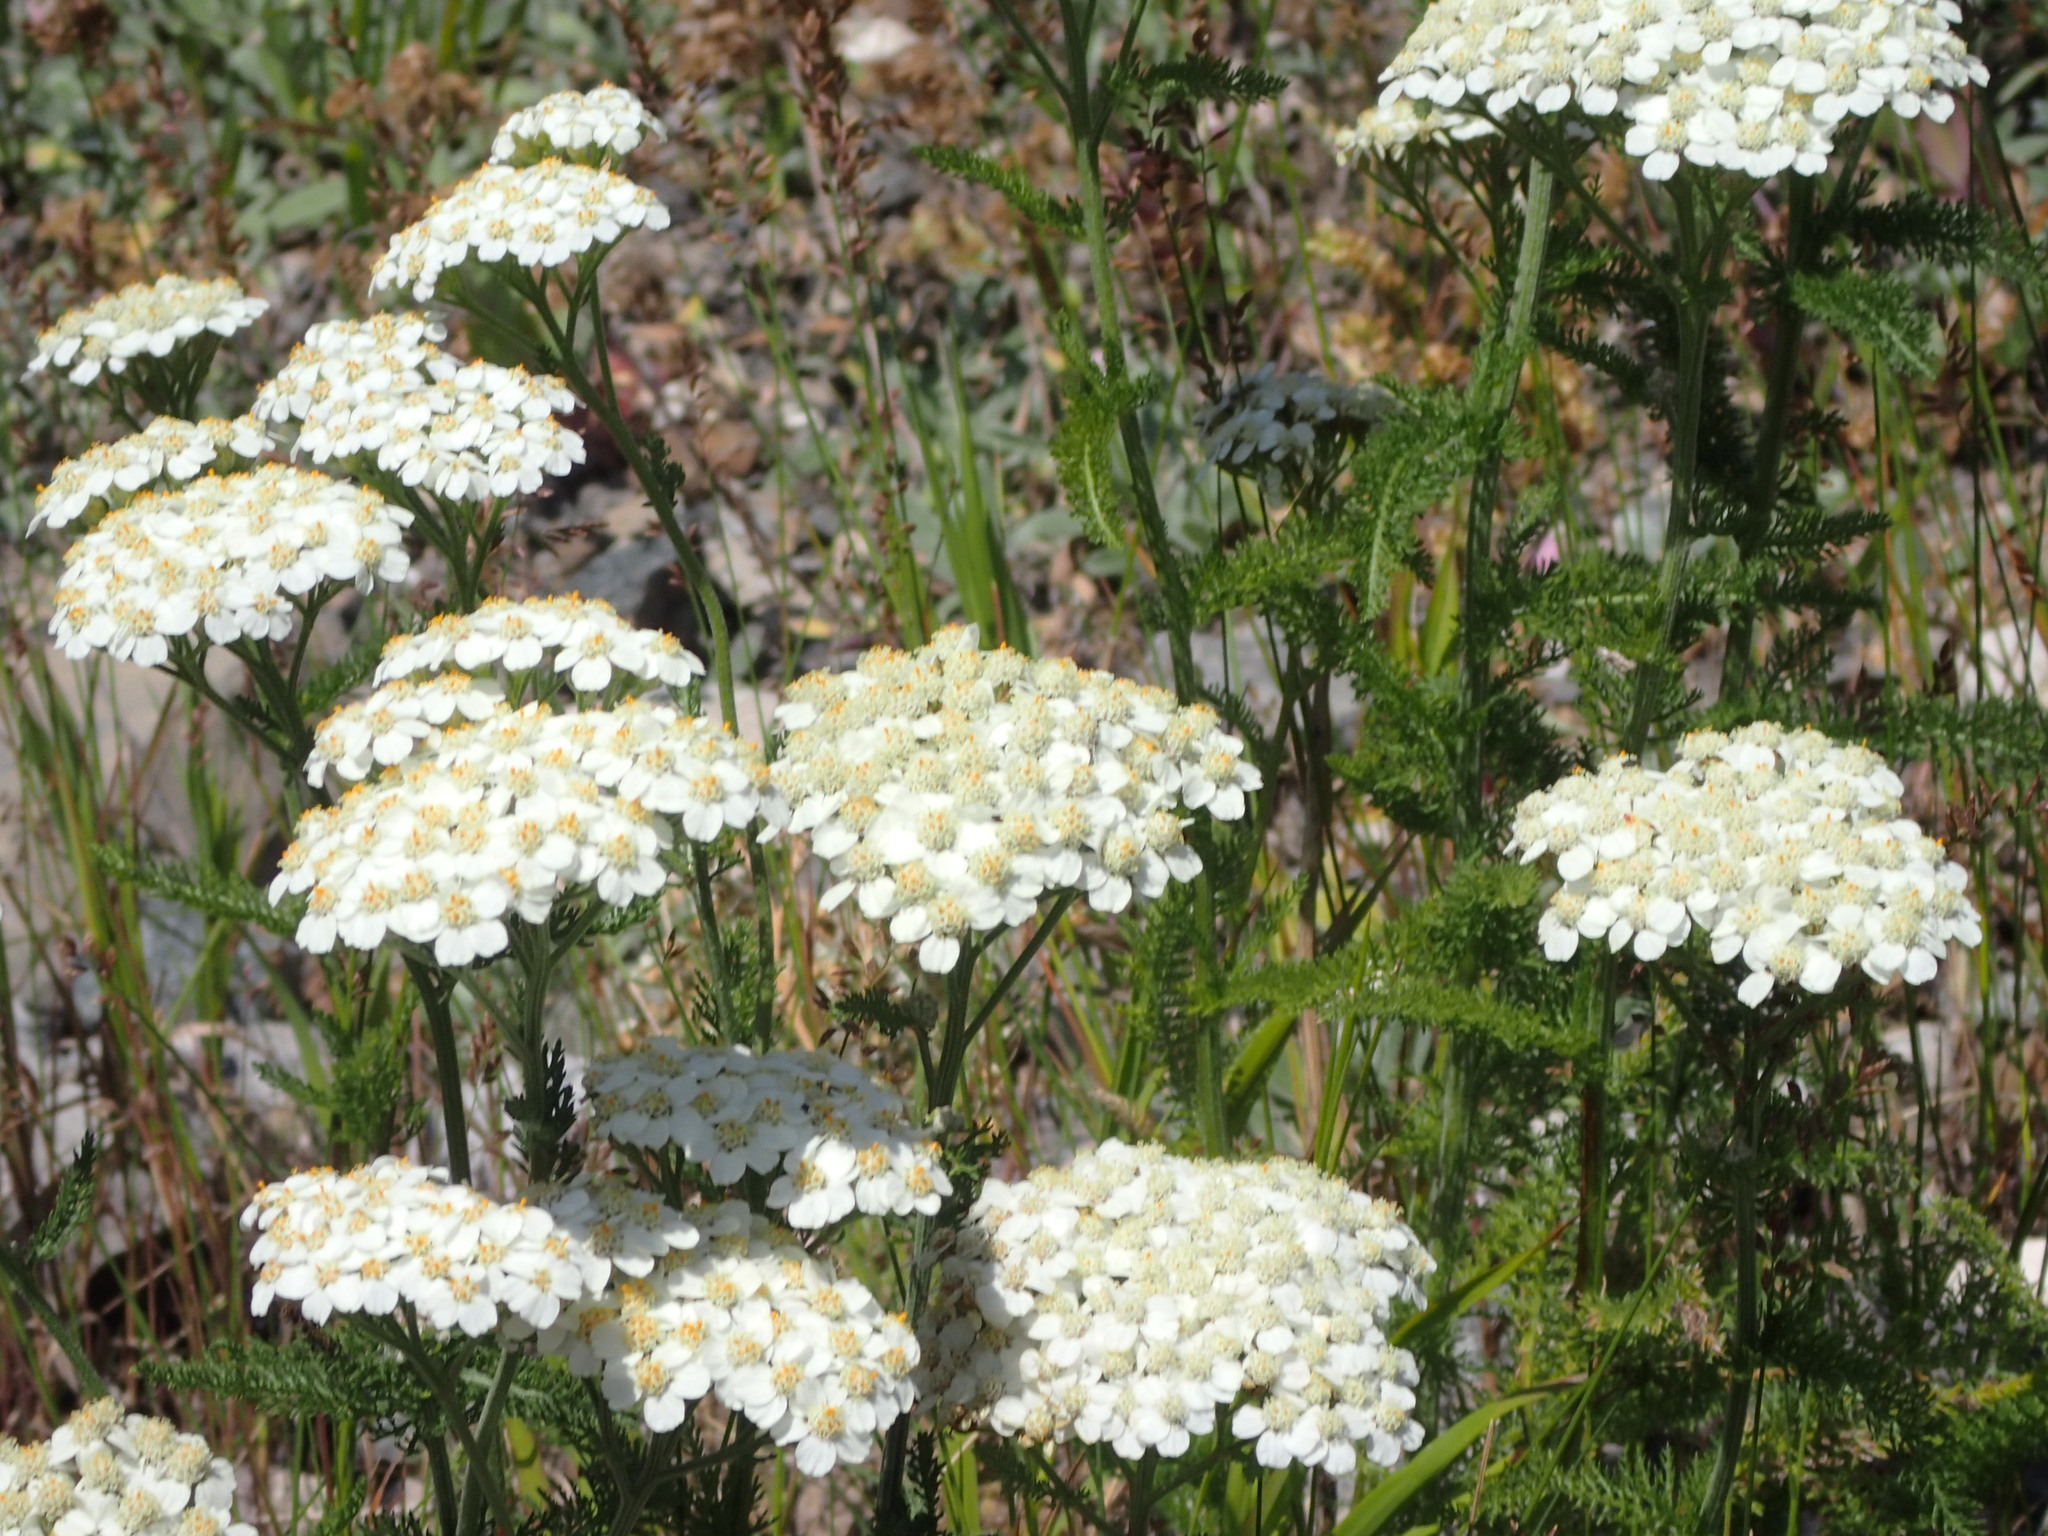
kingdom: Plantae
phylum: Tracheophyta
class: Magnoliopsida
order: Asterales
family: Asteraceae
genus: Achillea
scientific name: Achillea millefolium
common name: Yarrow
